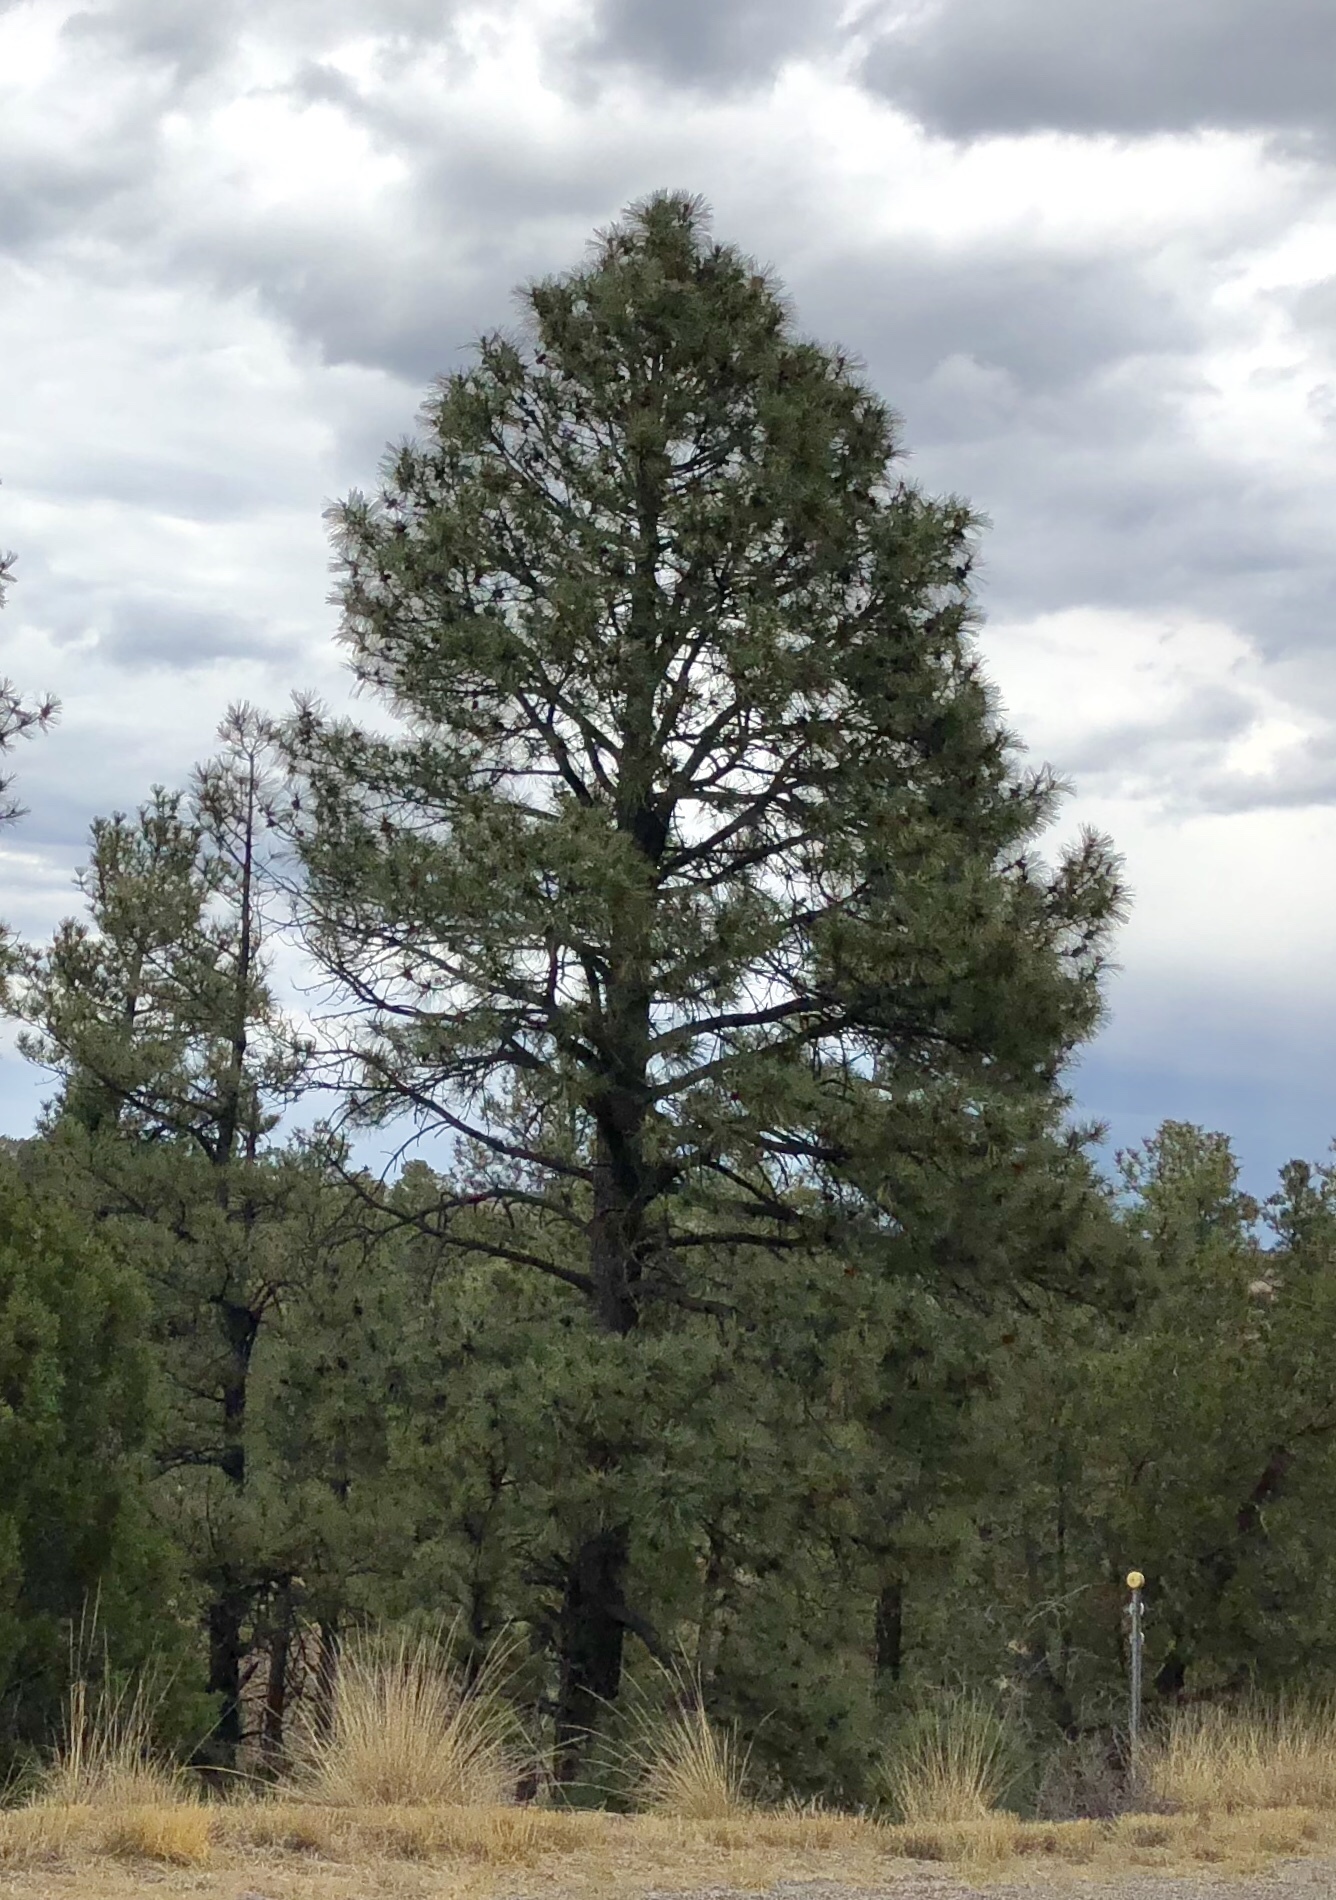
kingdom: Plantae
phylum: Tracheophyta
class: Pinopsida
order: Pinales
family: Pinaceae
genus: Pinus
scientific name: Pinus ponderosa
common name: Western yellow-pine
